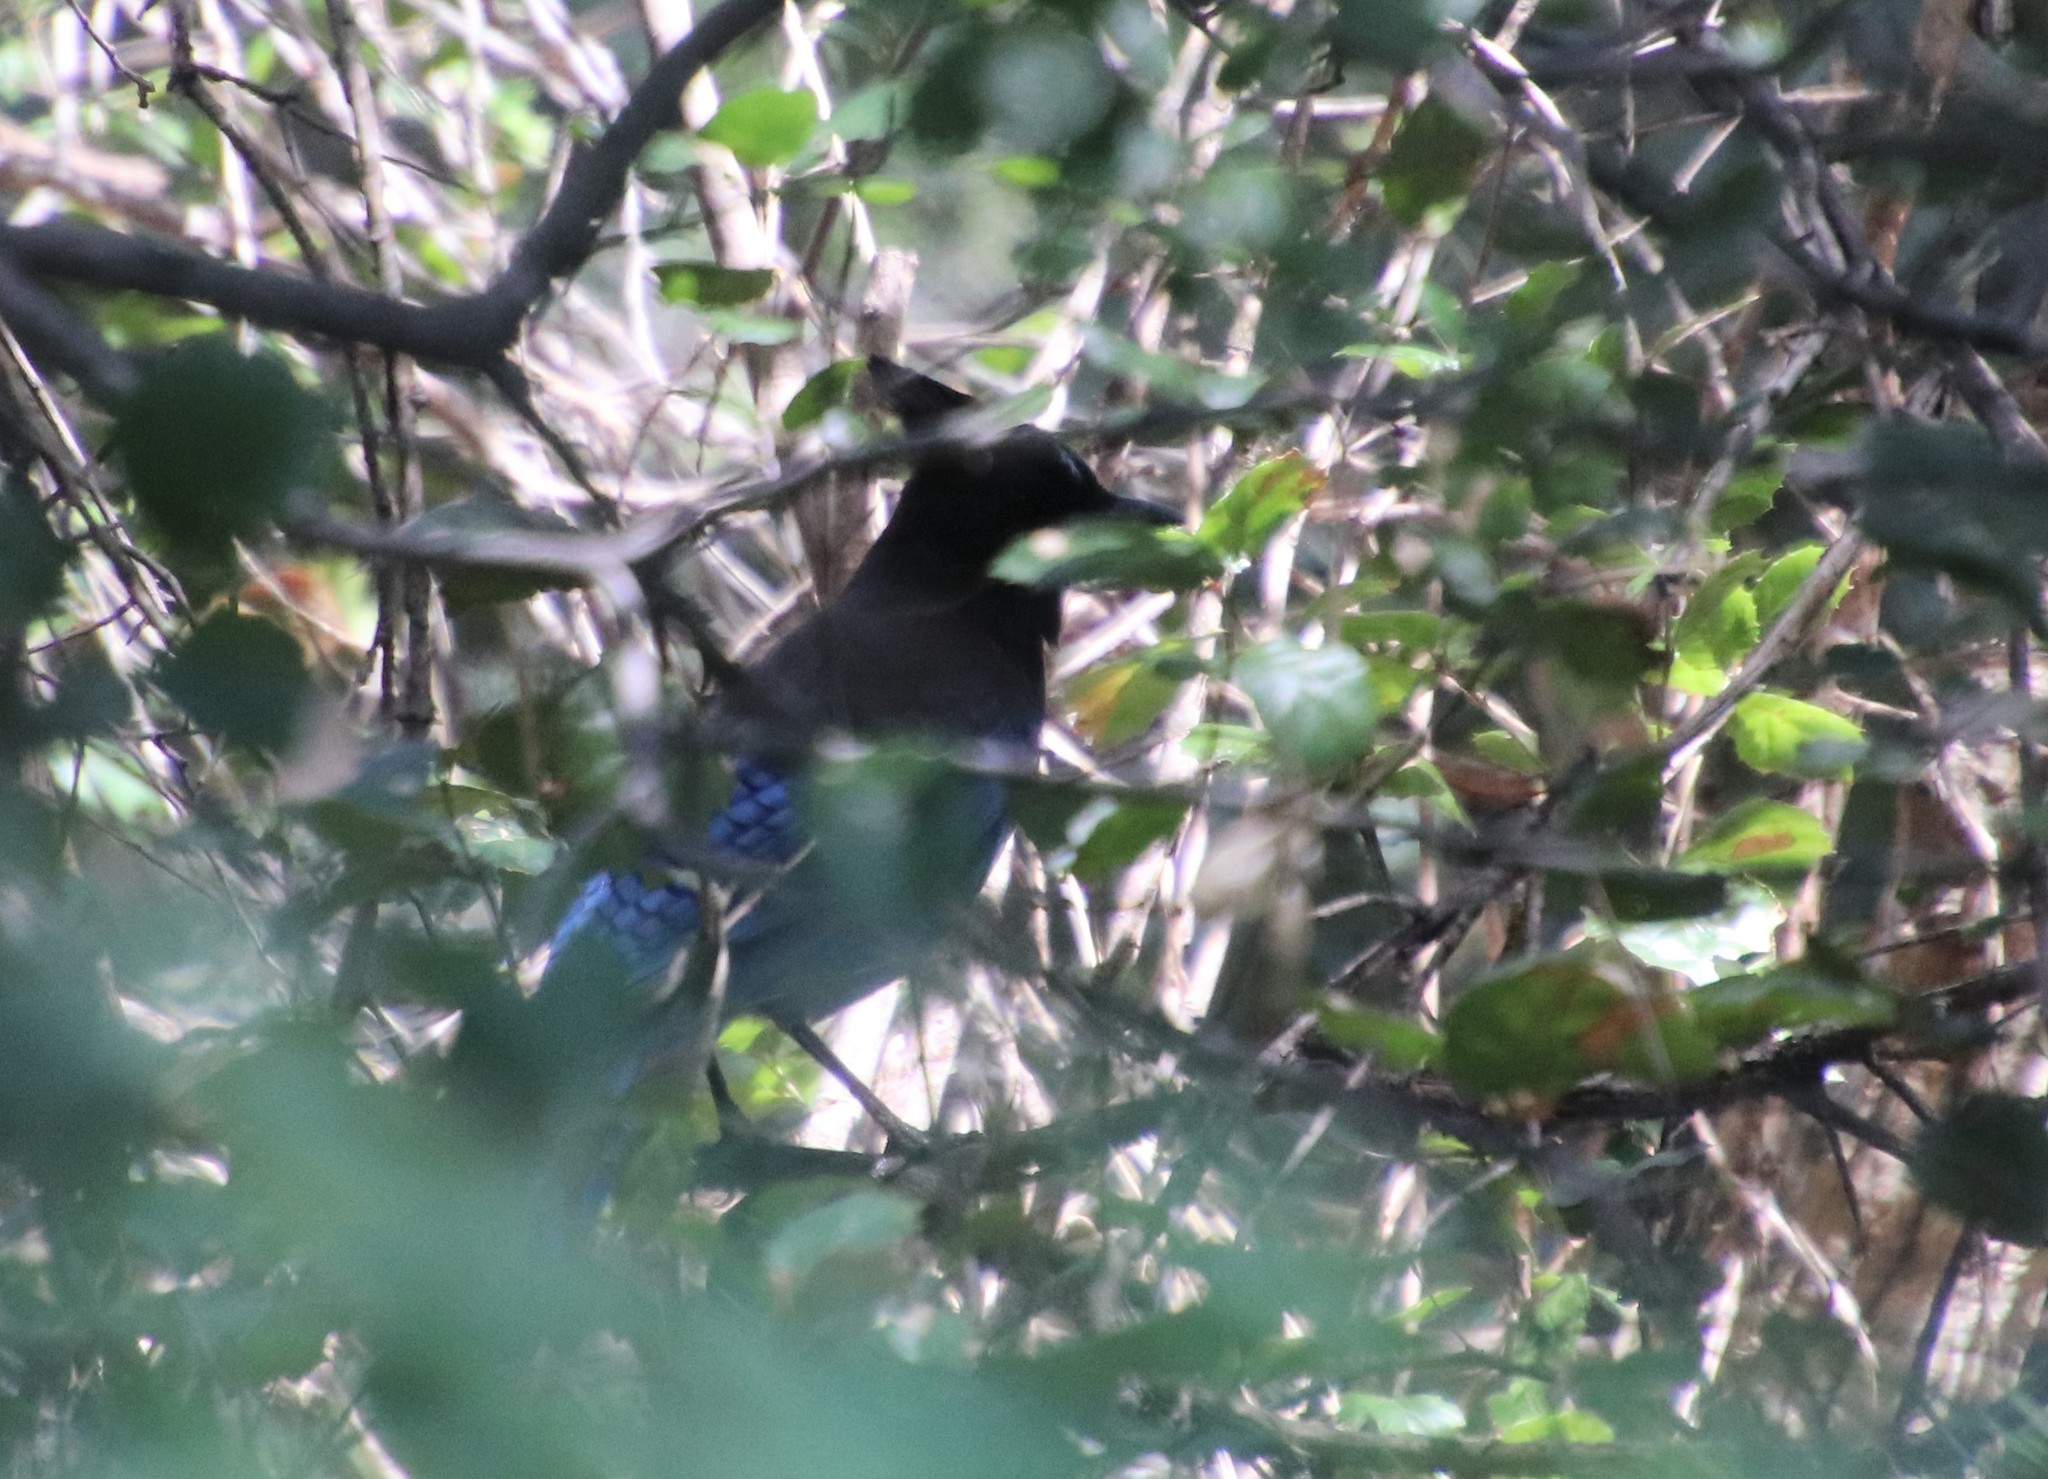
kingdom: Animalia
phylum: Chordata
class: Aves
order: Passeriformes
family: Corvidae
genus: Cyanocitta
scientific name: Cyanocitta stelleri
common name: Steller's jay
